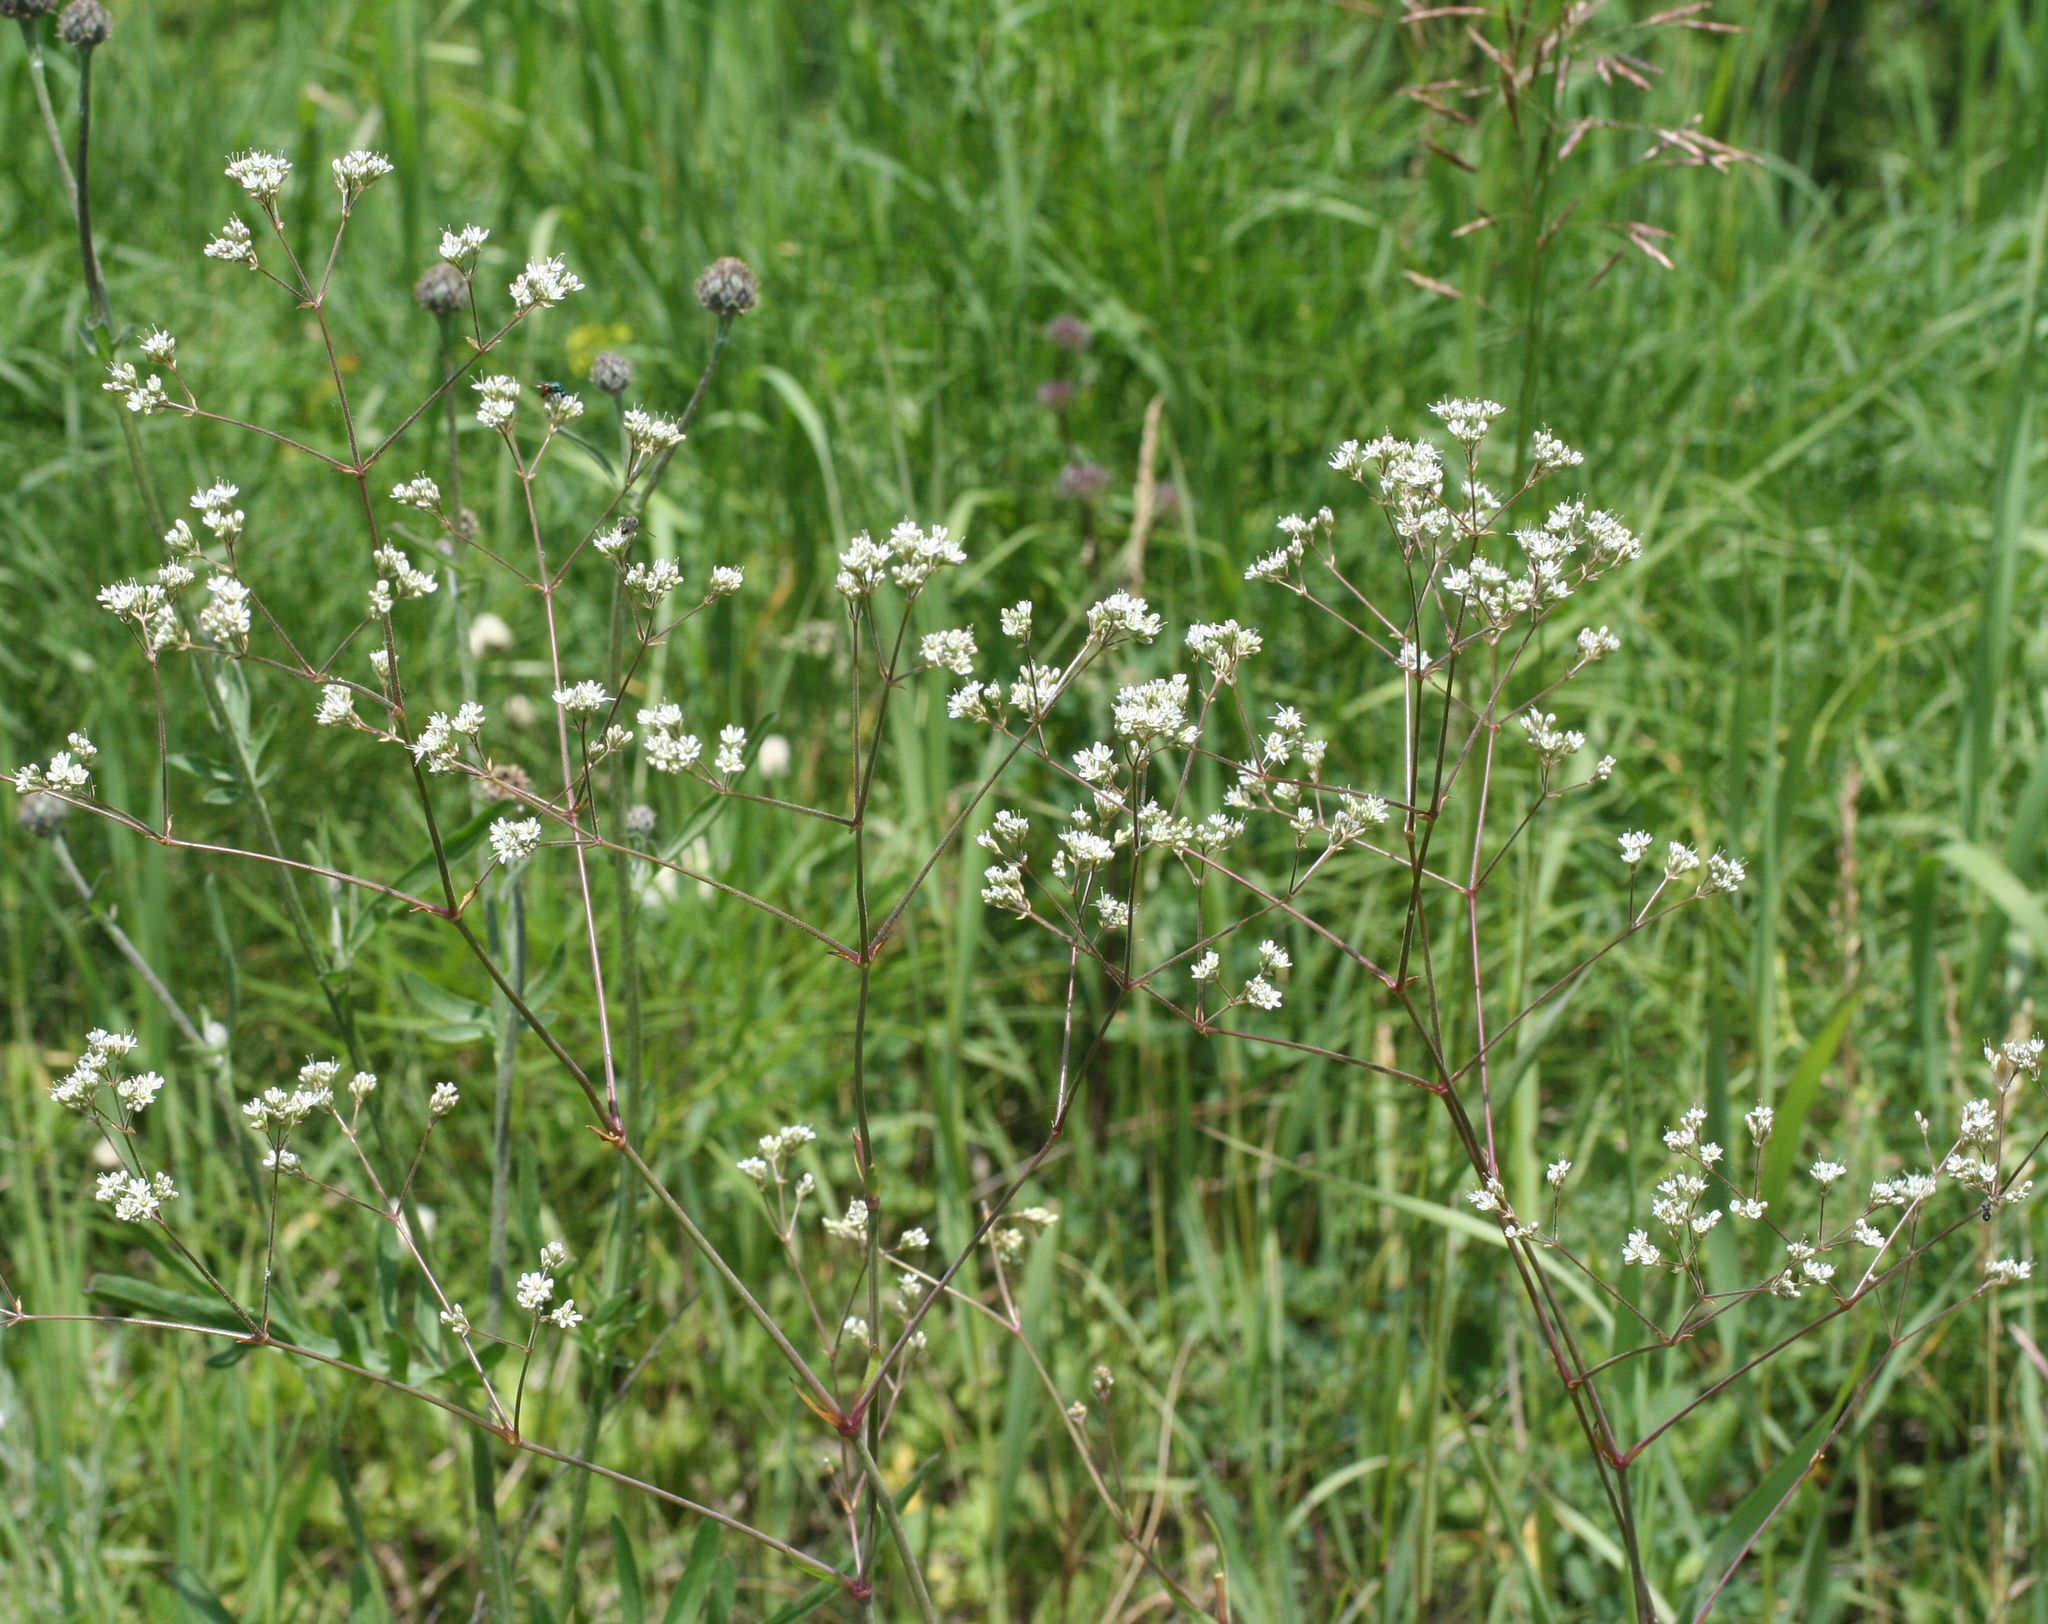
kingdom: Plantae
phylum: Tracheophyta
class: Magnoliopsida
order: Caryophyllales
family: Caryophyllaceae
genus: Gypsophila
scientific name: Gypsophila altissima
